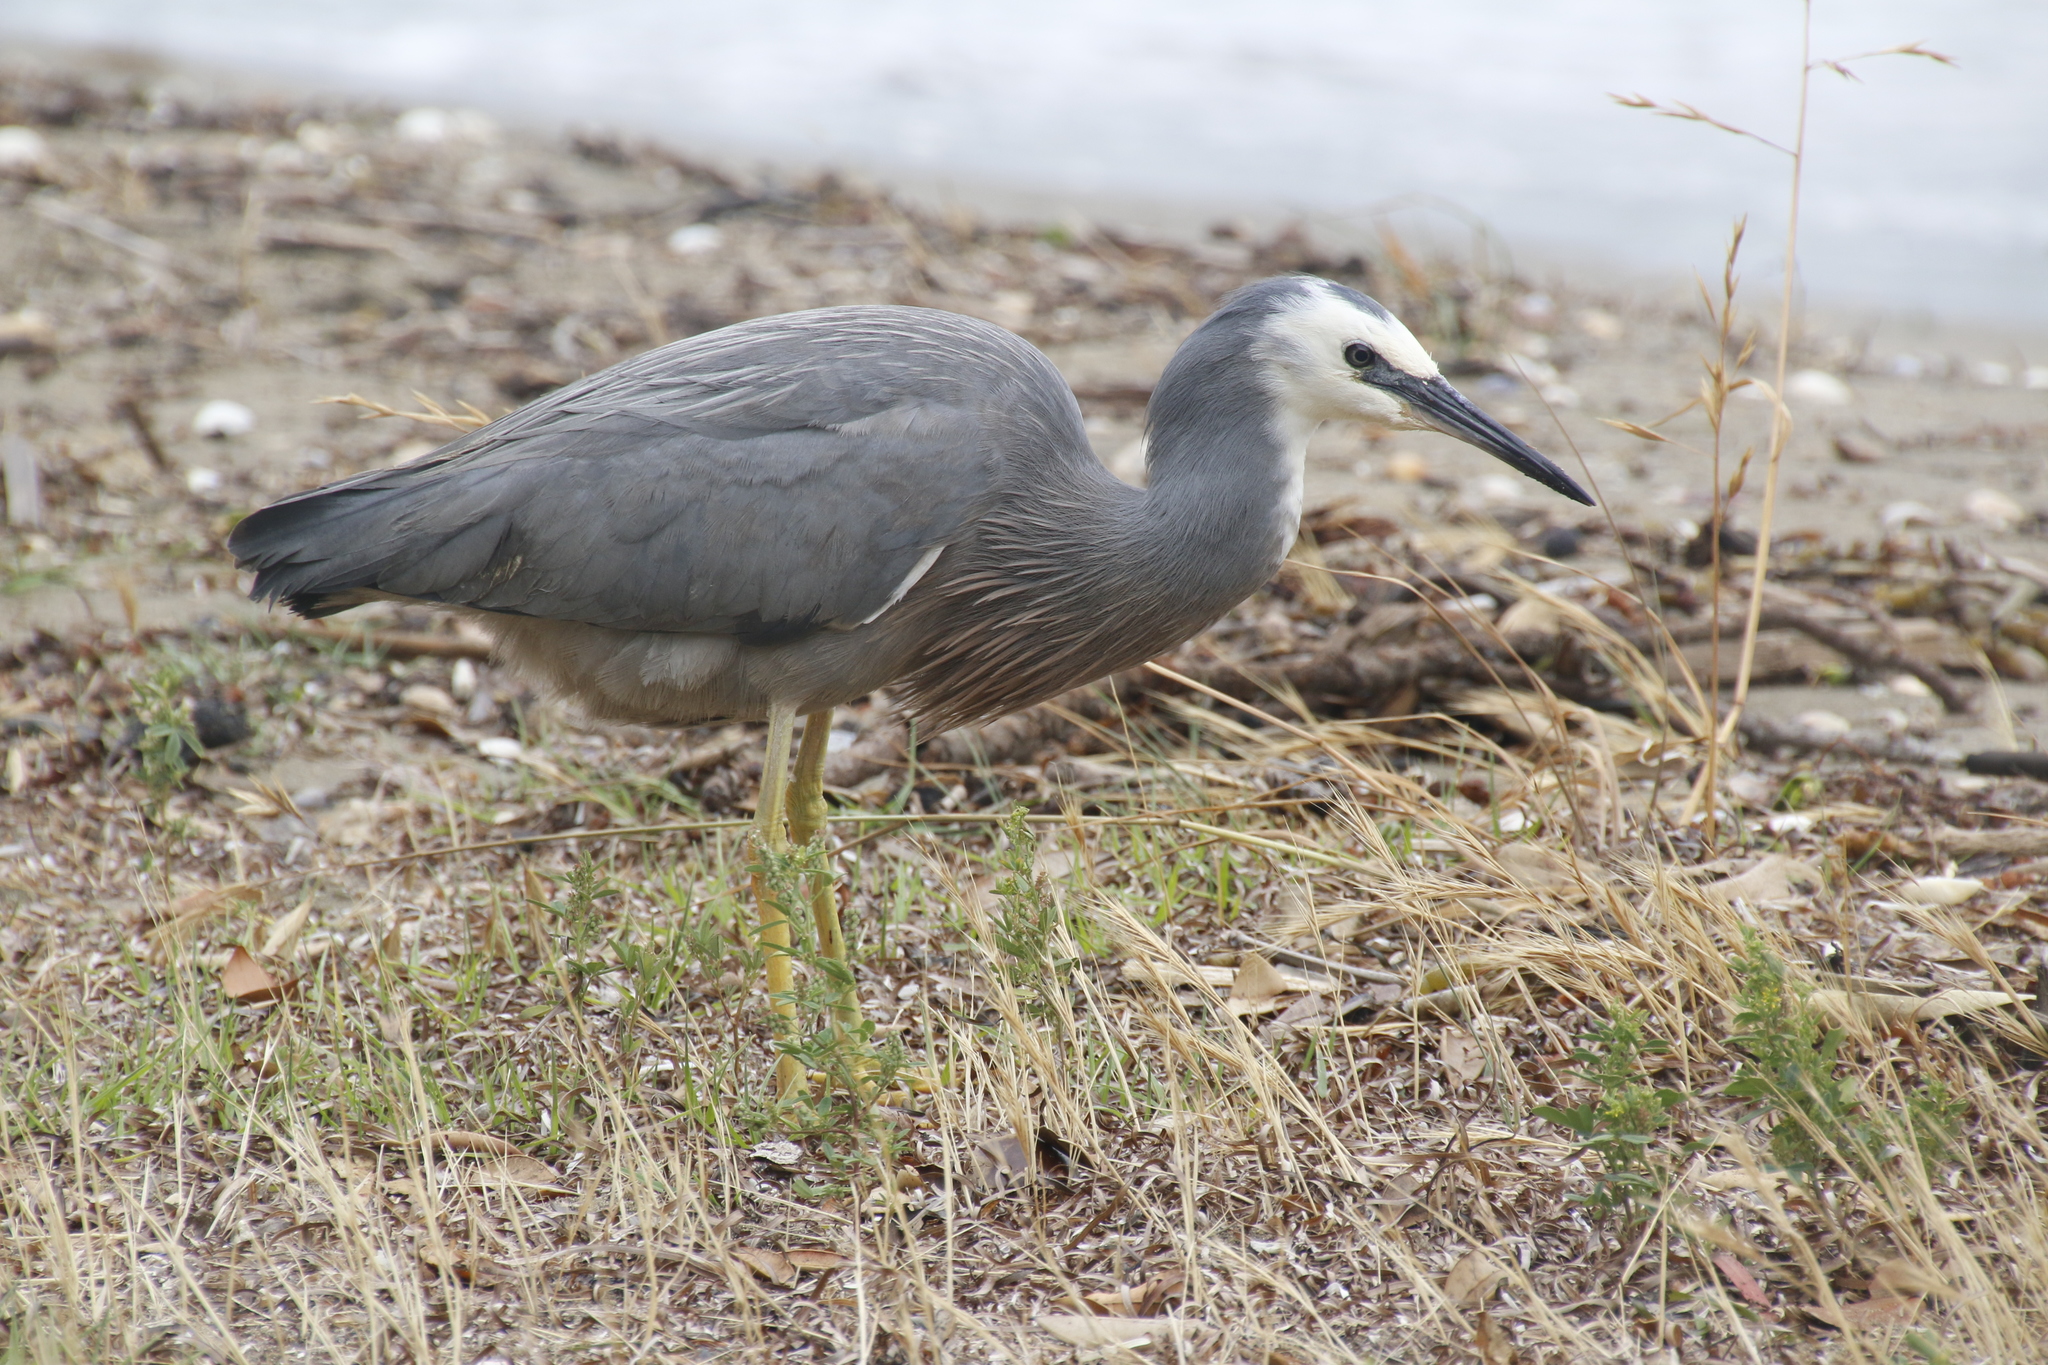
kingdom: Animalia
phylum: Chordata
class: Aves
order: Pelecaniformes
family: Ardeidae
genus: Egretta
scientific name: Egretta novaehollandiae
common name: White-faced heron
